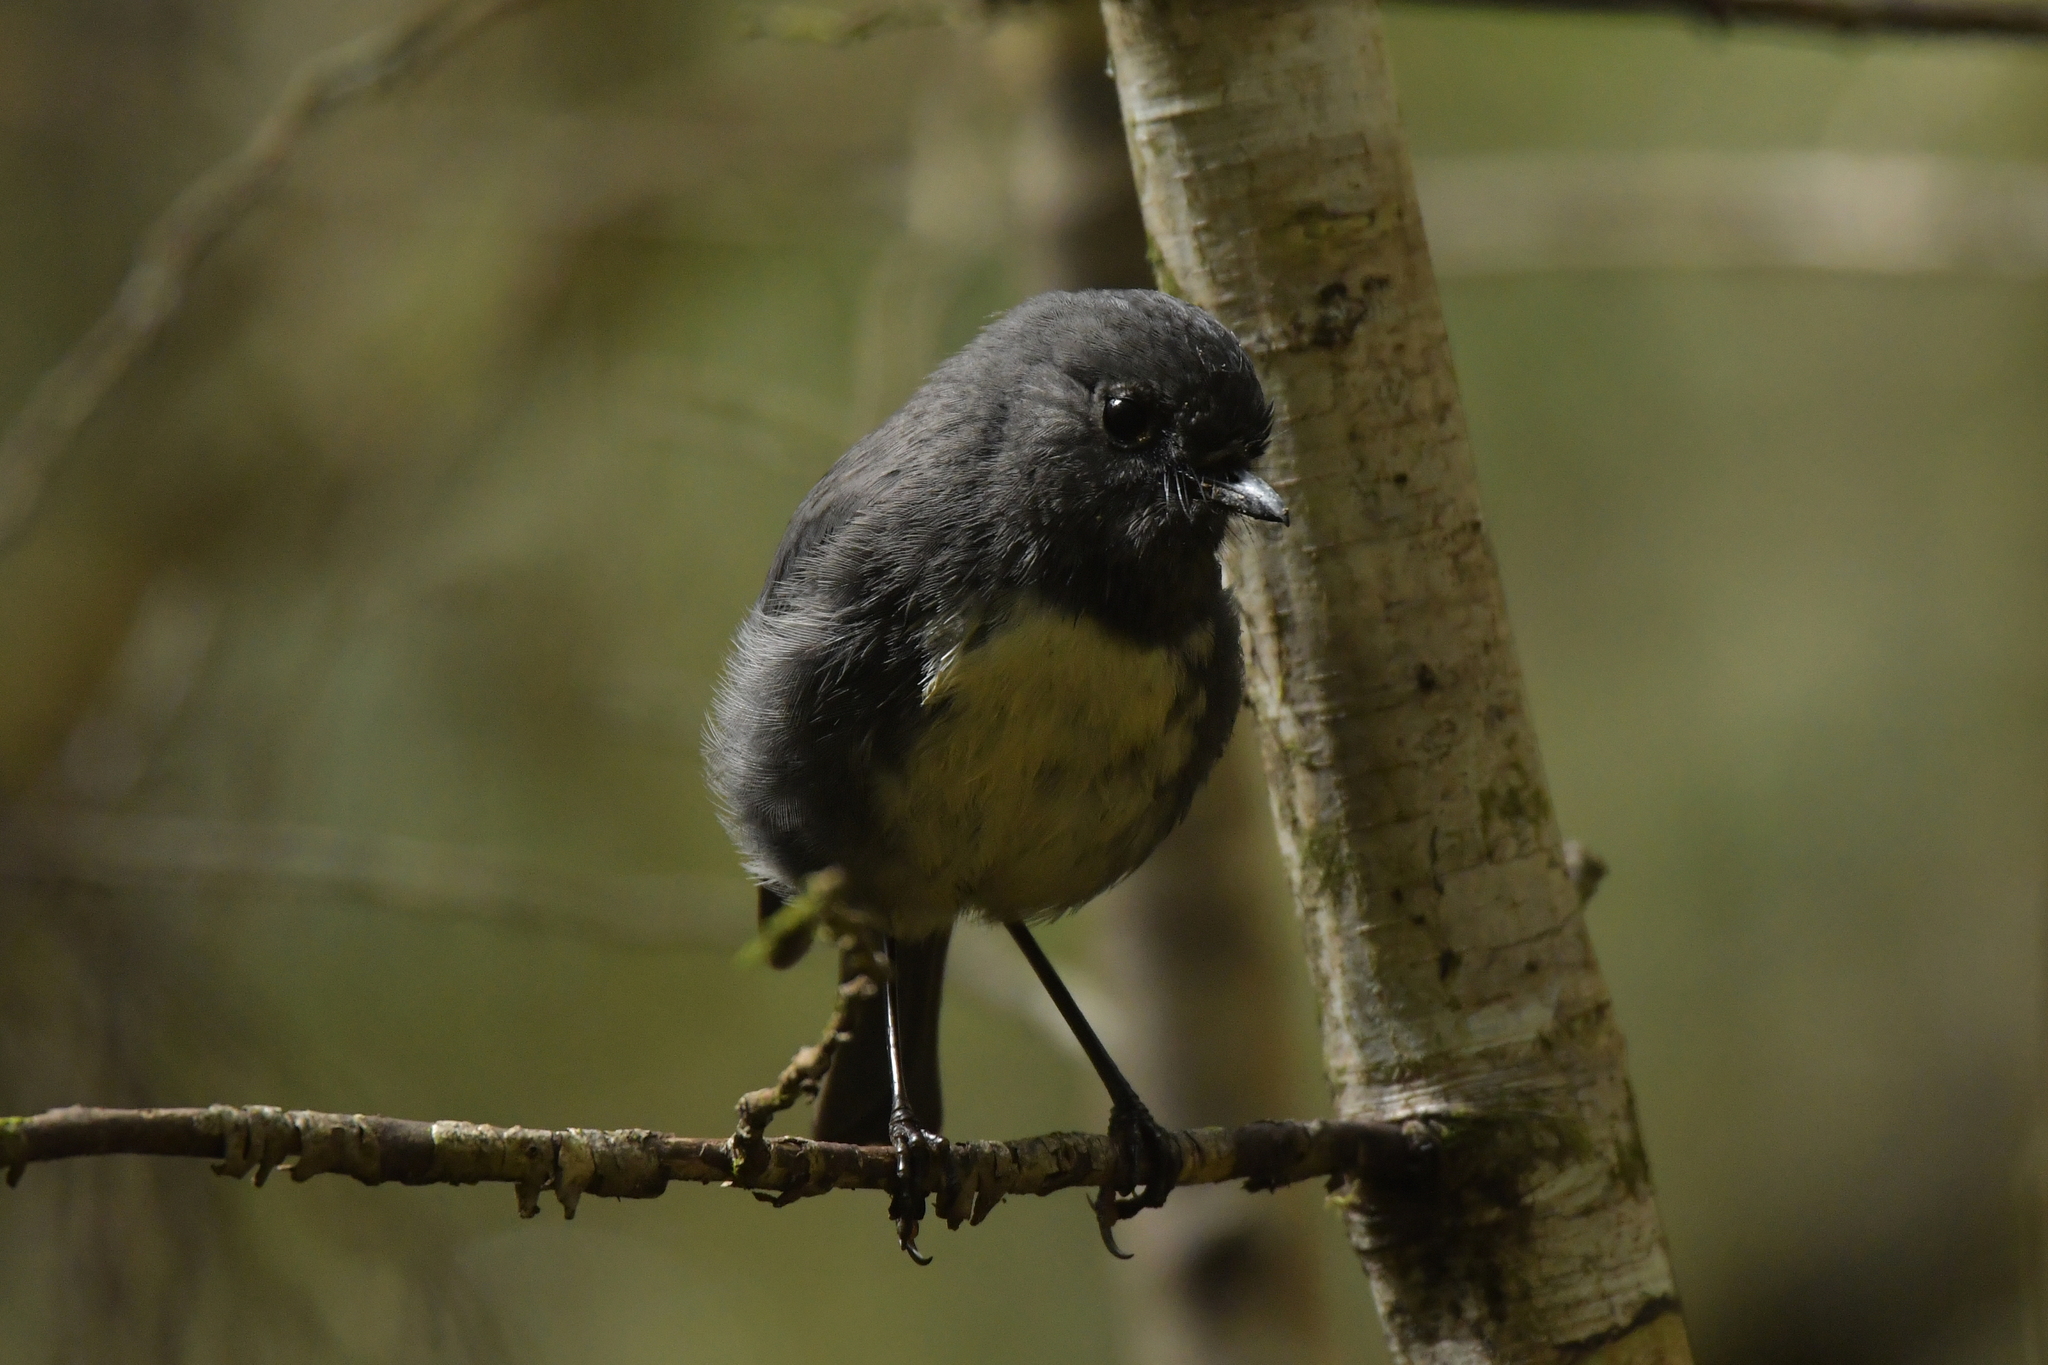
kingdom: Animalia
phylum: Chordata
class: Aves
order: Passeriformes
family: Petroicidae
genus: Petroica
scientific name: Petroica australis
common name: New zealand robin
